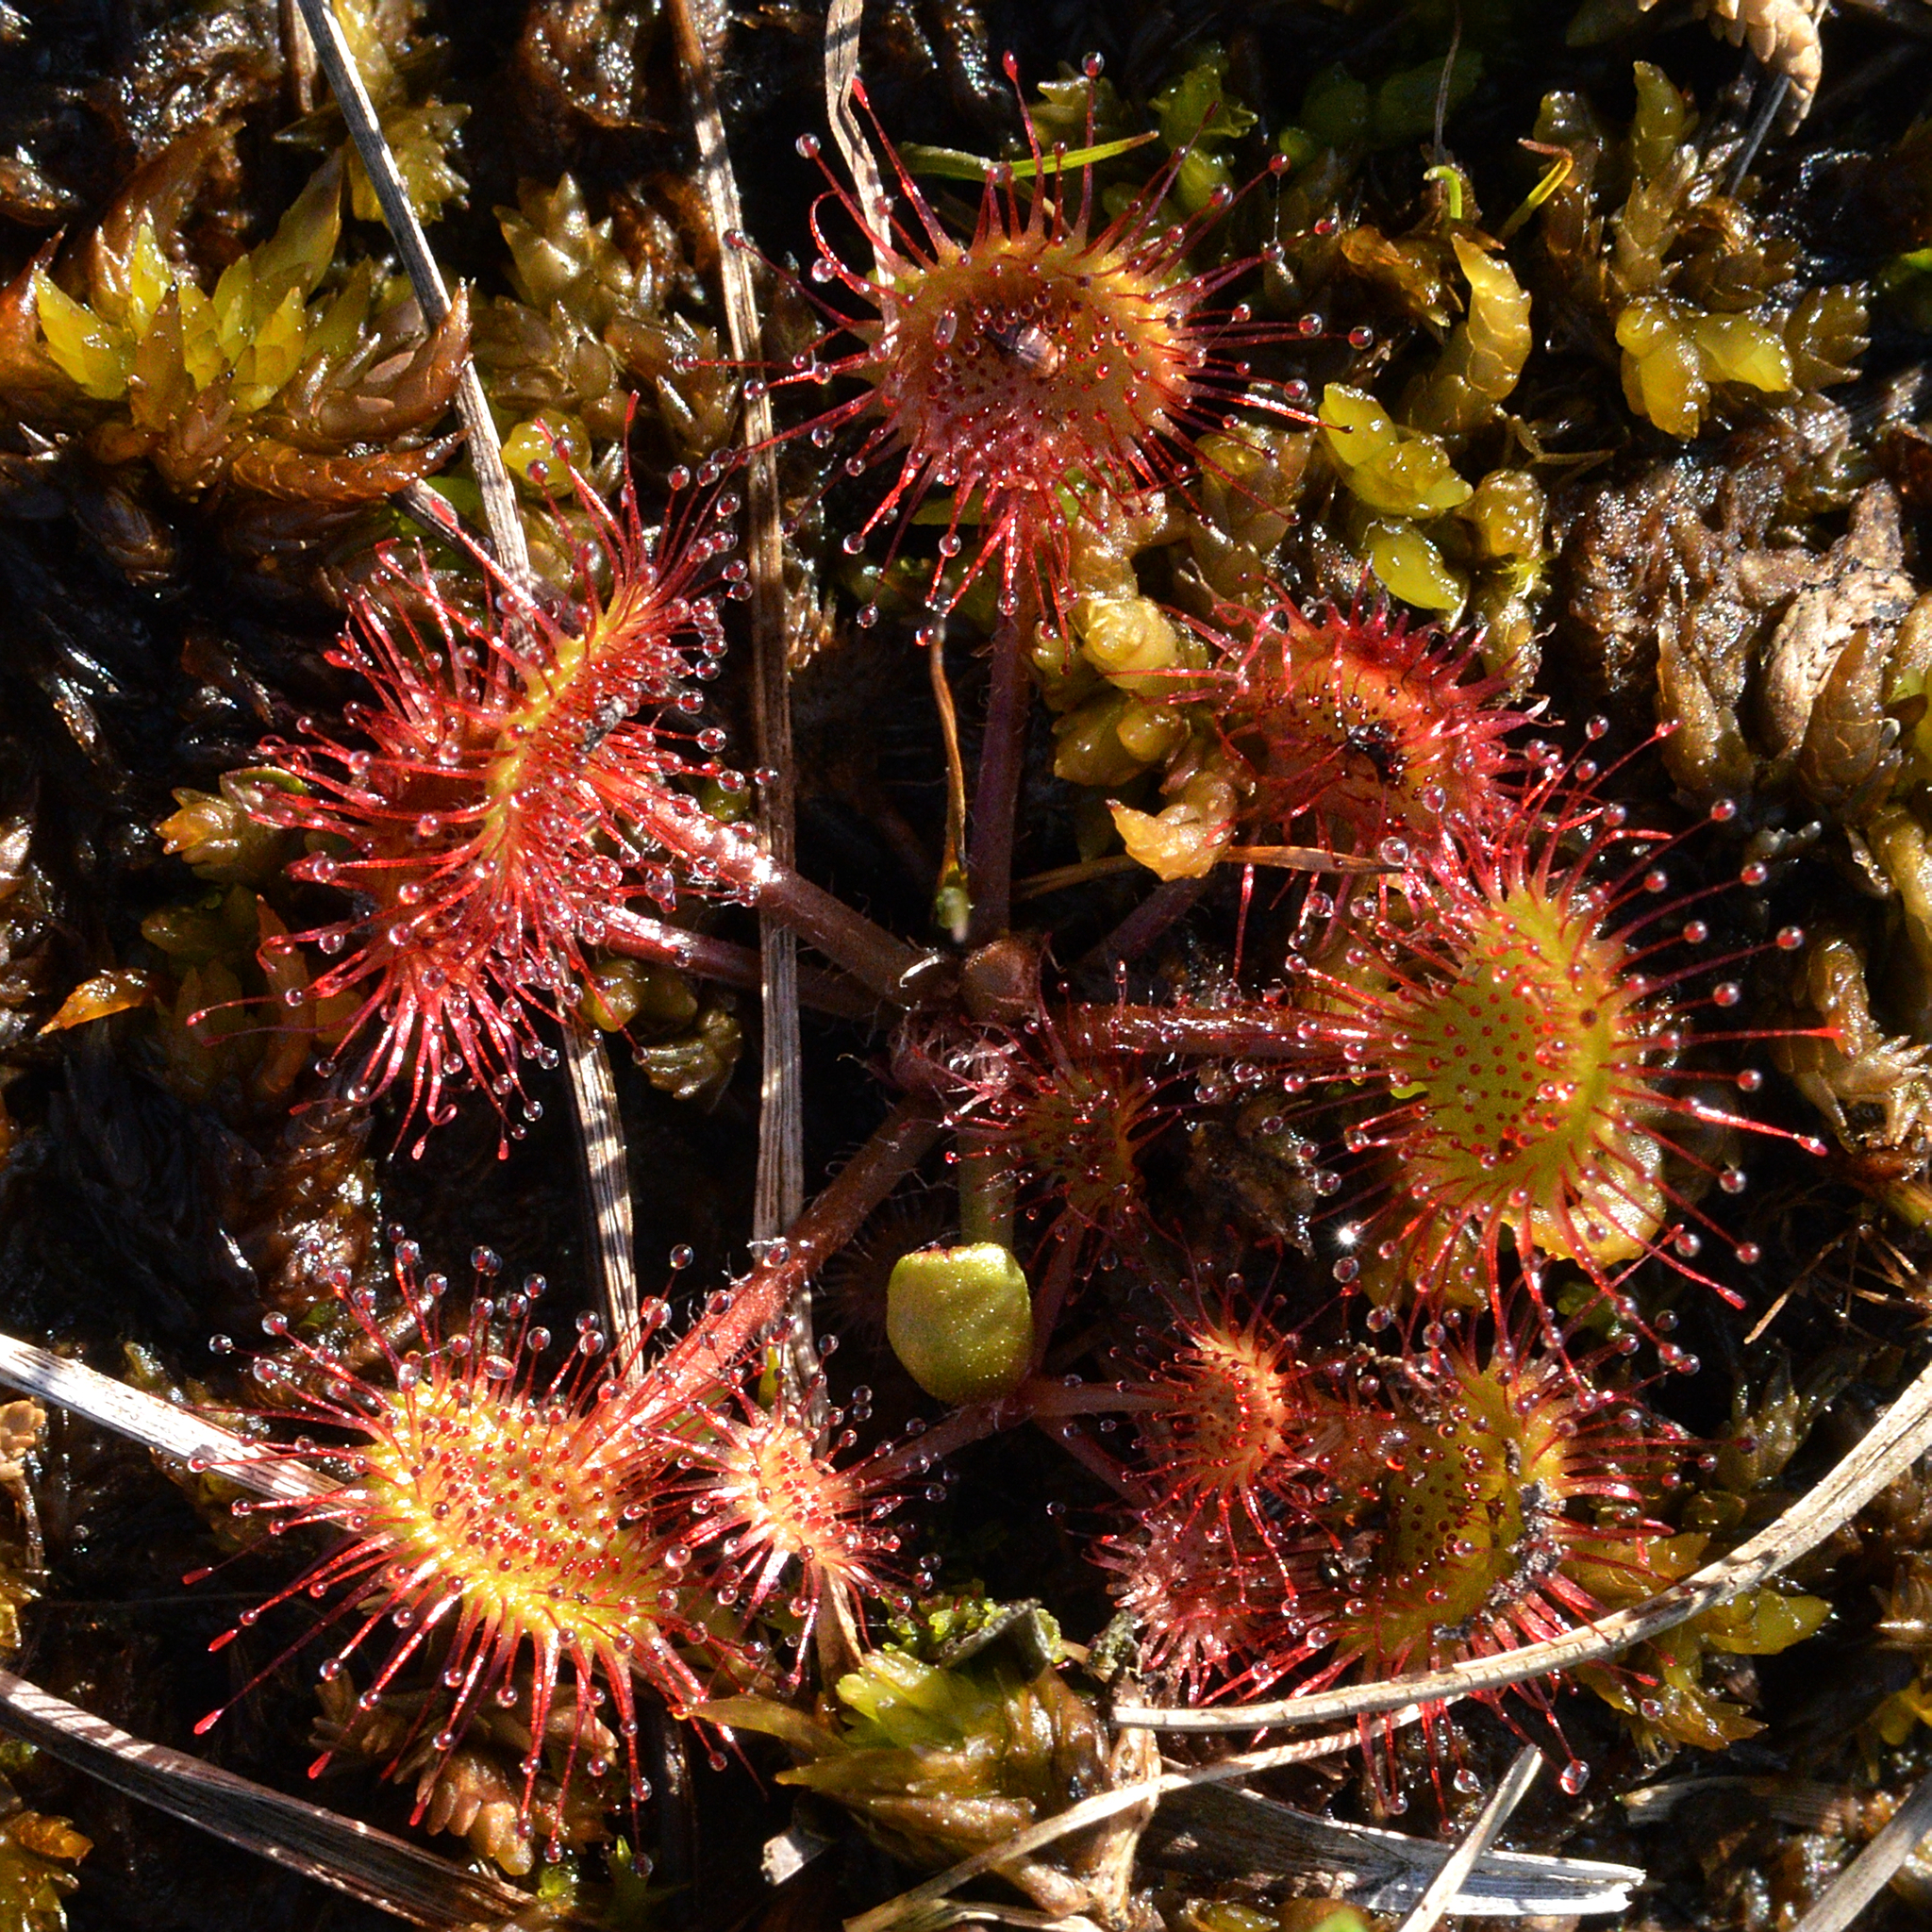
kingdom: Plantae
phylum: Tracheophyta
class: Magnoliopsida
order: Caryophyllales
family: Droseraceae
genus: Drosera
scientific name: Drosera rotundifolia
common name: Round-leaved sundew
